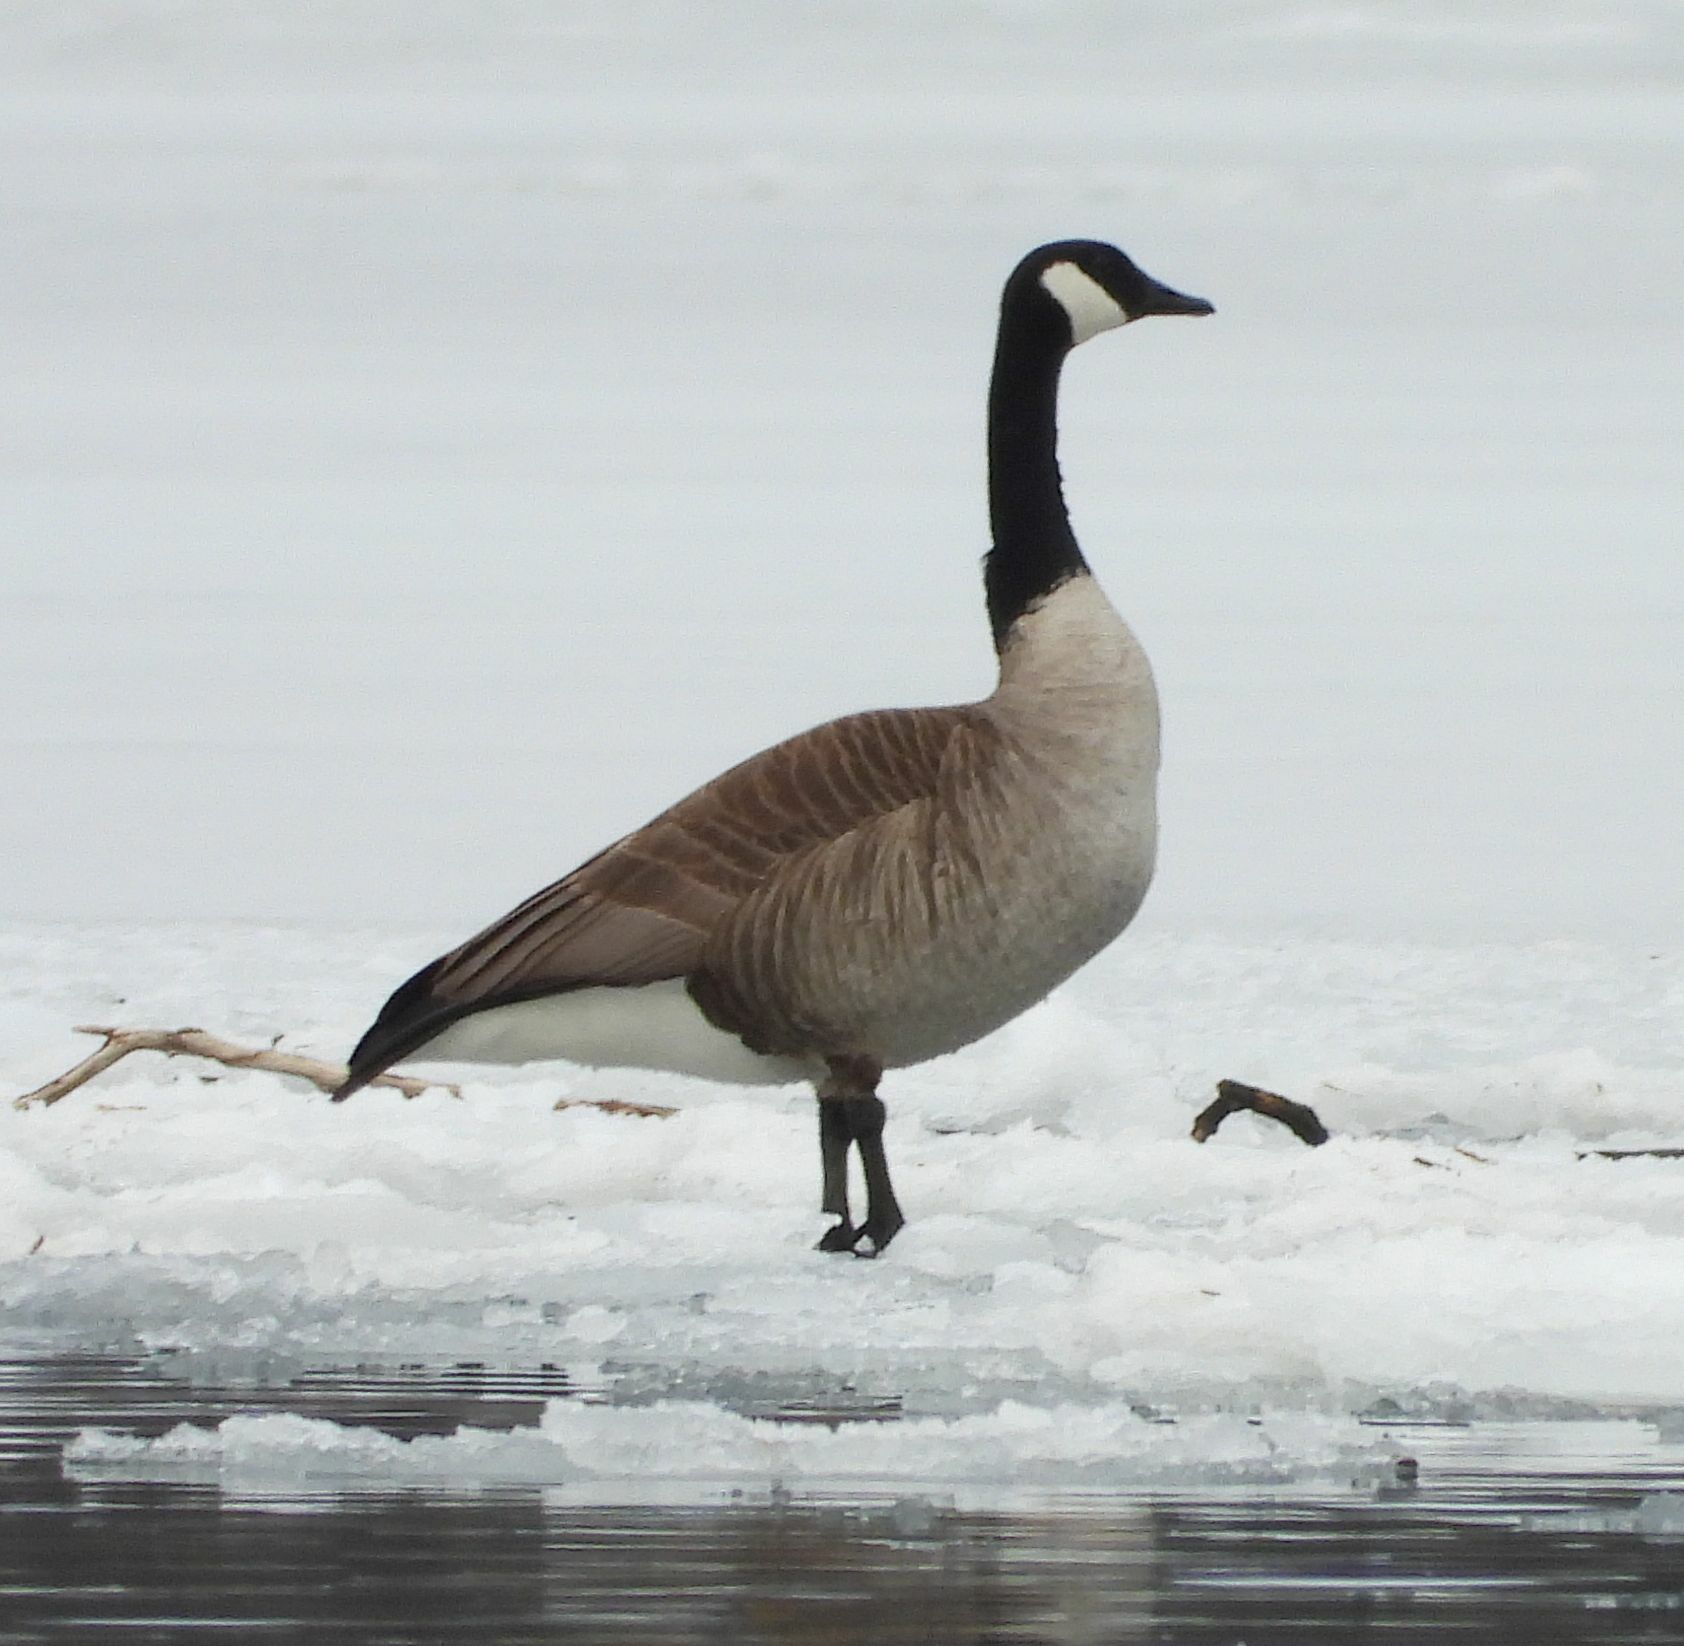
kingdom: Animalia
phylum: Chordata
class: Aves
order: Anseriformes
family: Anatidae
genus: Branta
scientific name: Branta canadensis
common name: Canada goose
